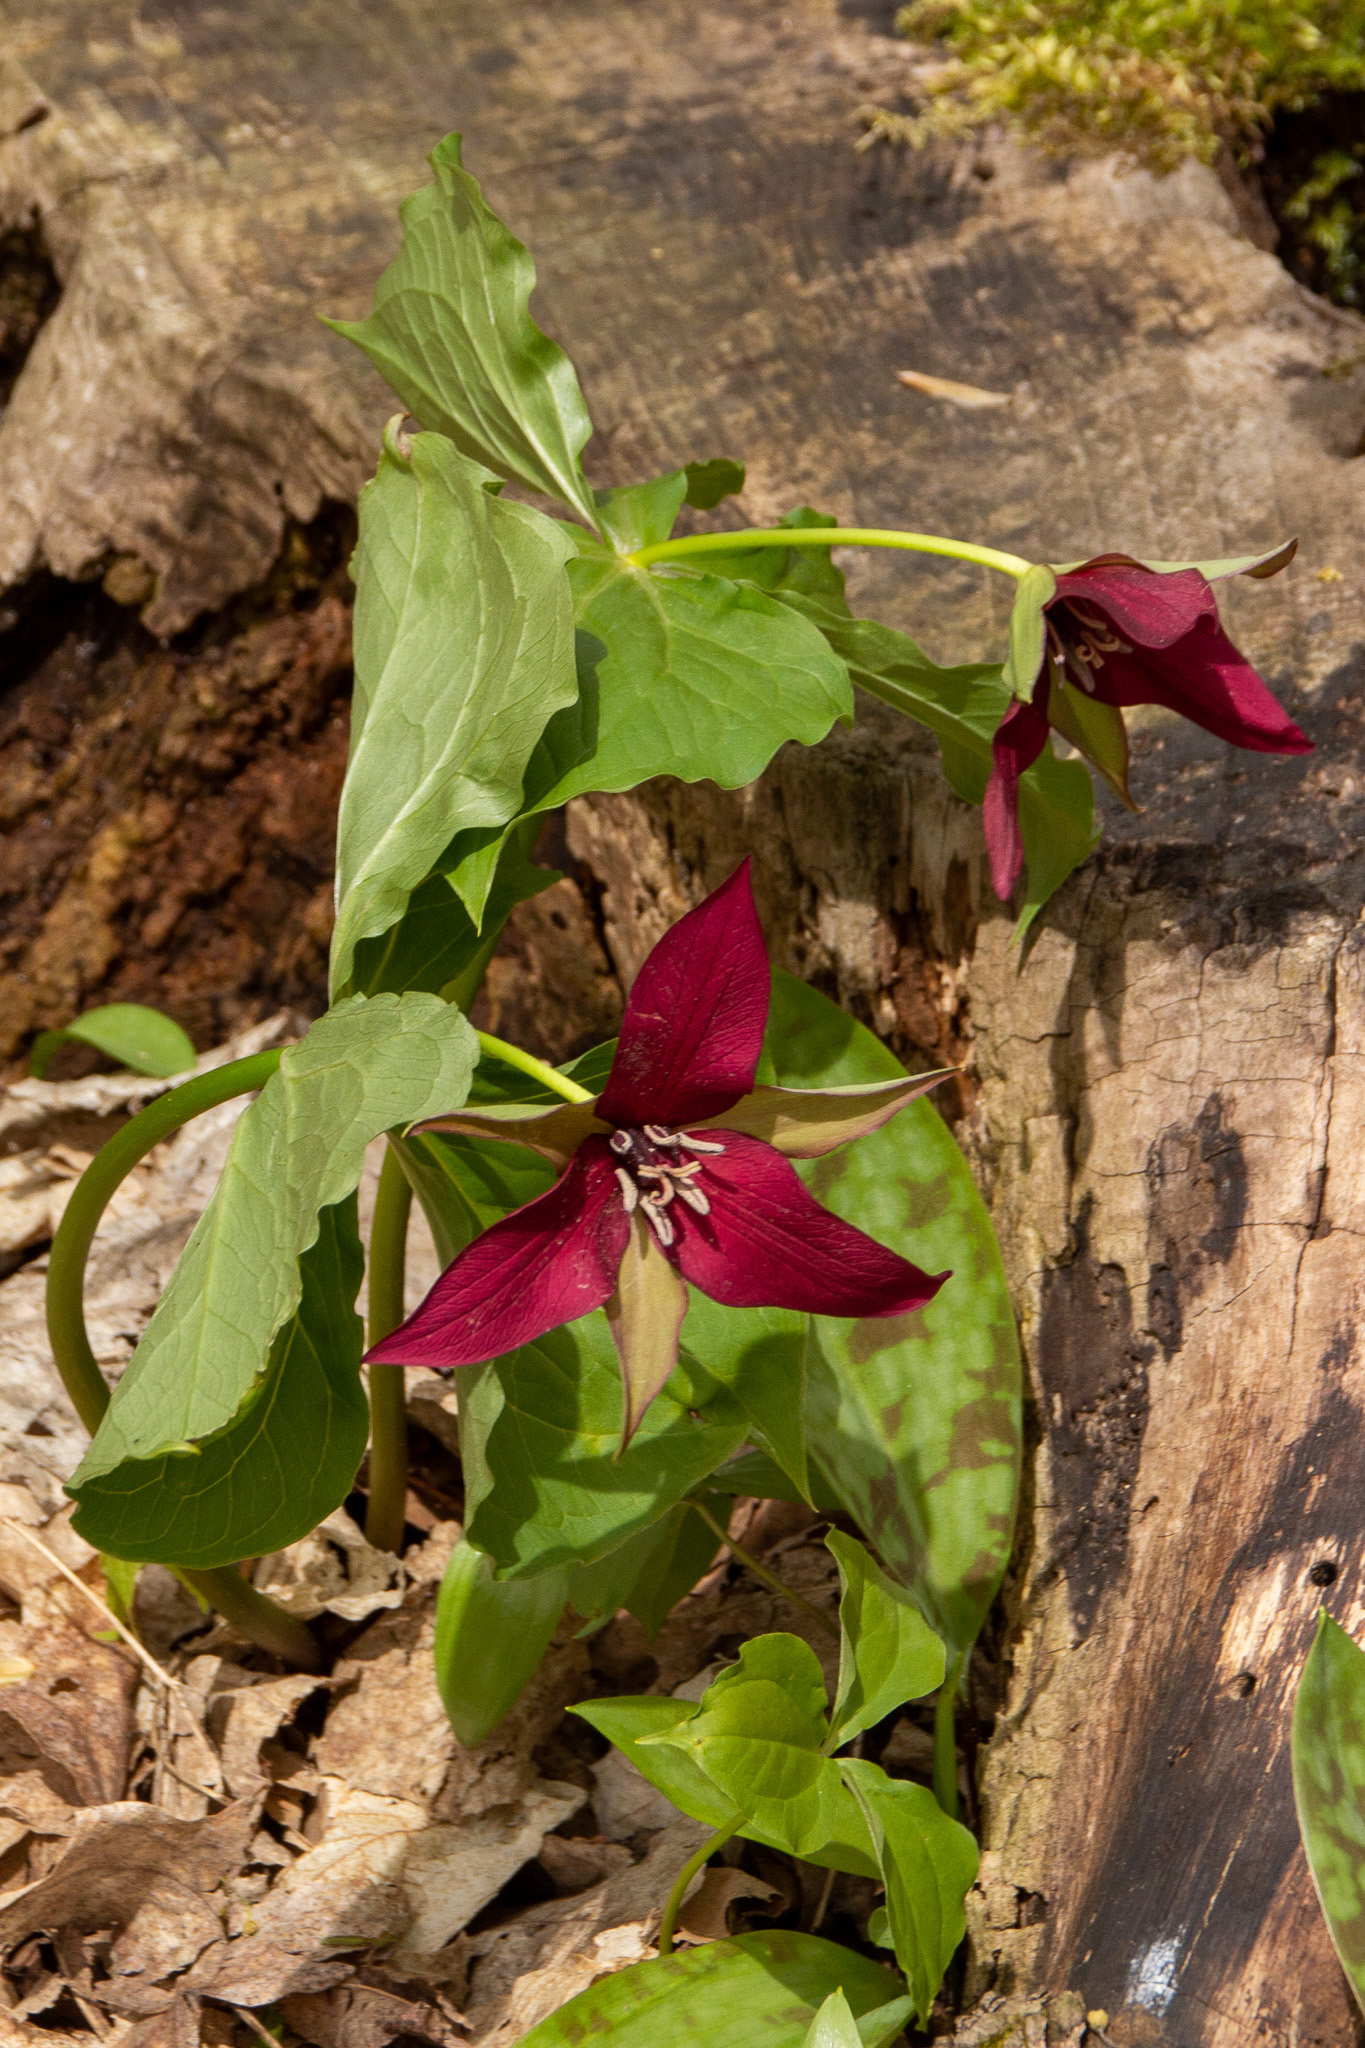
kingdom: Plantae
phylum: Tracheophyta
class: Liliopsida
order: Liliales
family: Melanthiaceae
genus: Trillium
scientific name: Trillium erectum
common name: Purple trillium
